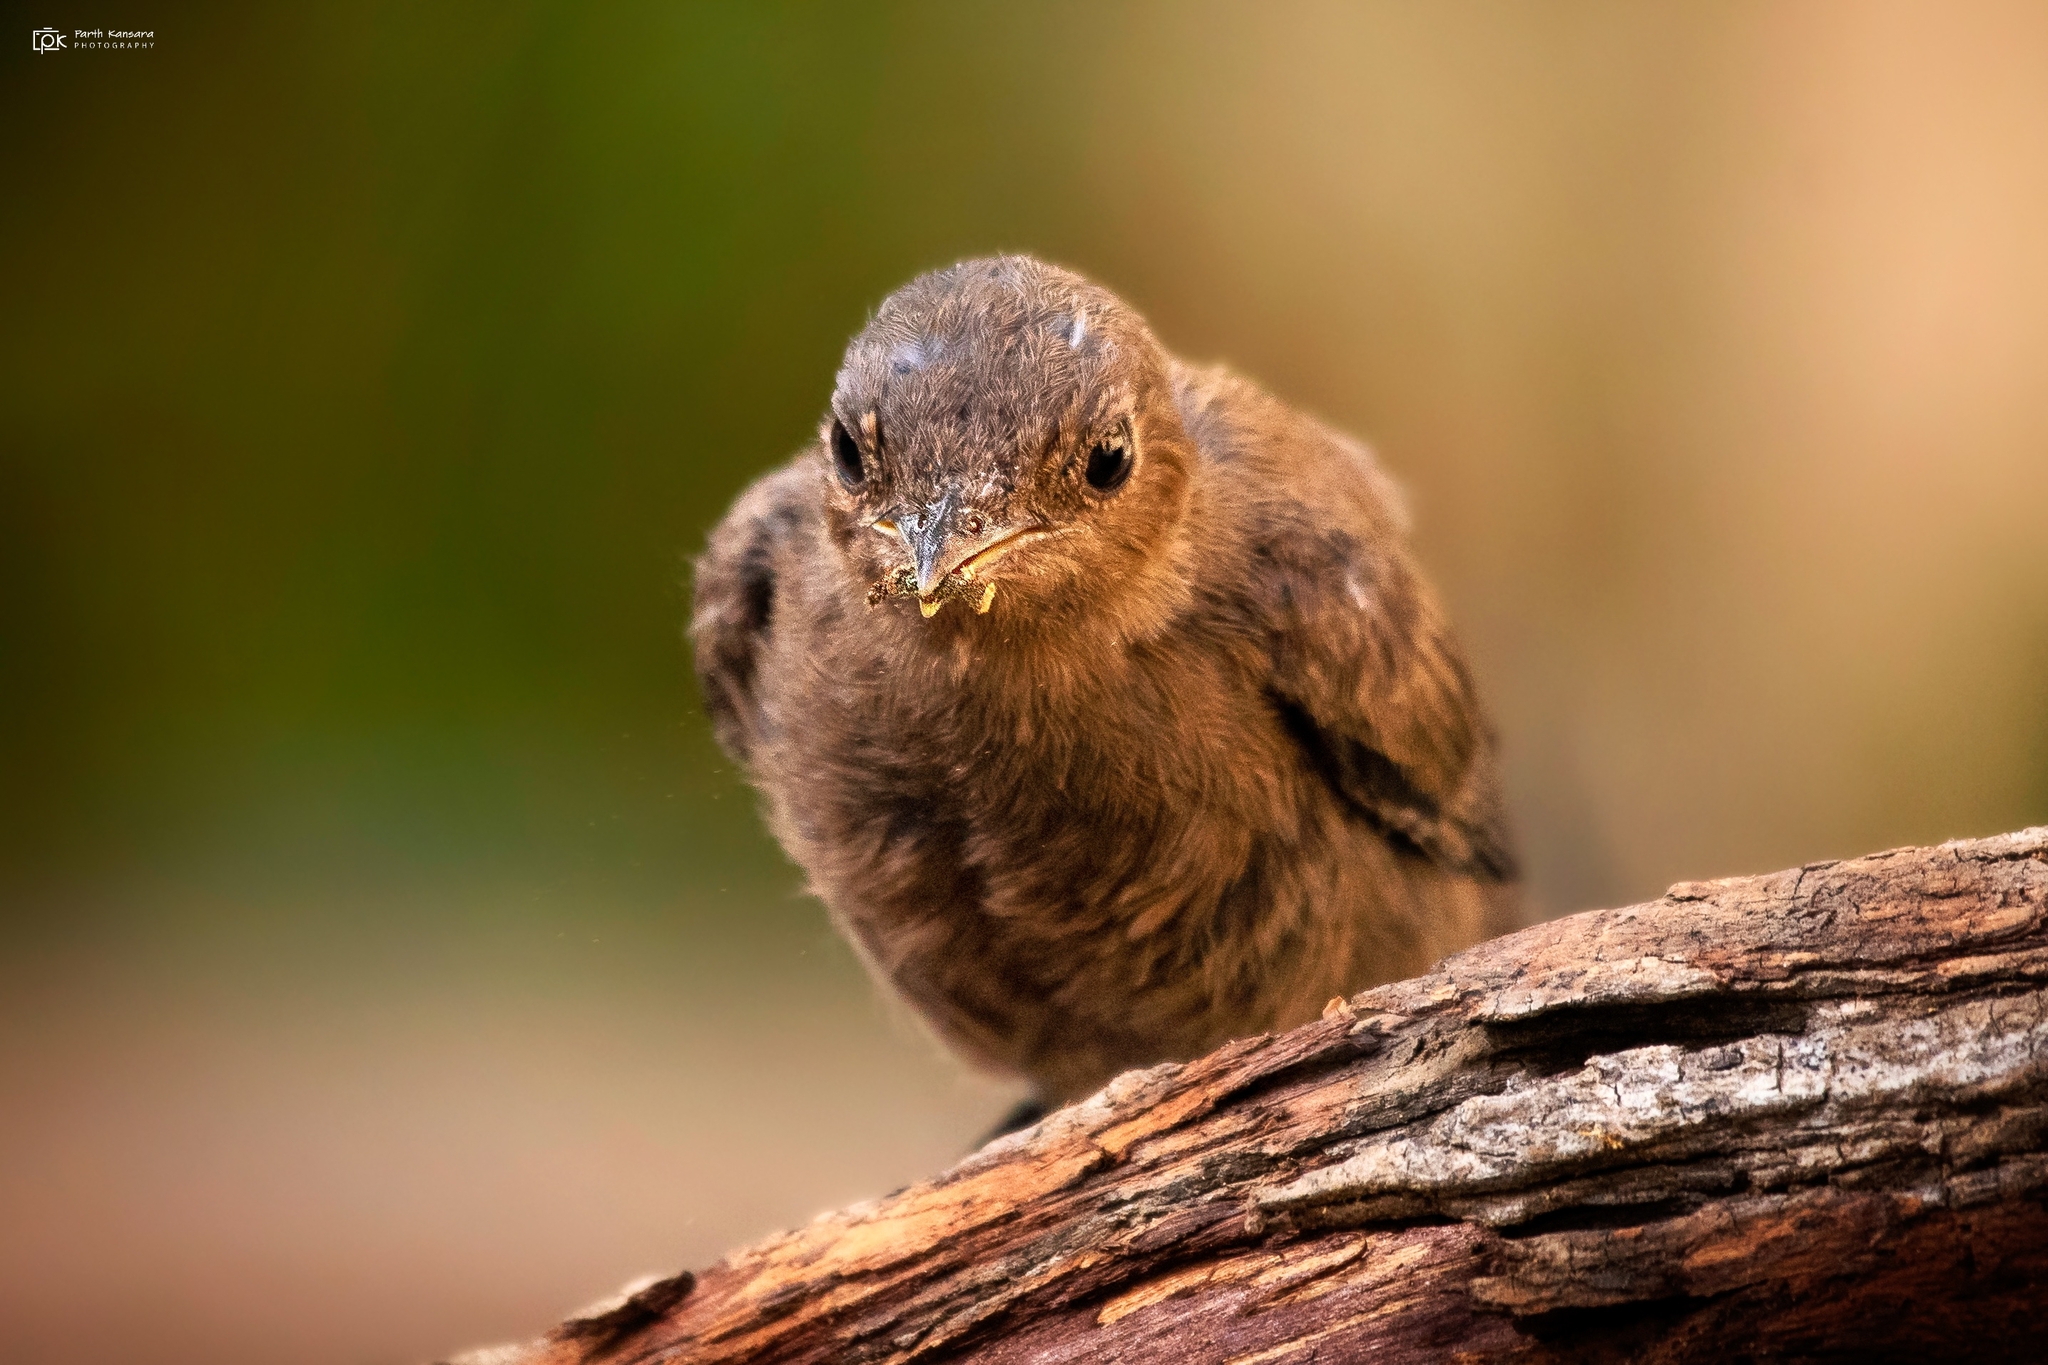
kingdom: Animalia
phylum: Chordata
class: Aves
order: Passeriformes
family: Muscicapidae
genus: Oenanthe
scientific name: Oenanthe fusca
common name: Brown rock chat
